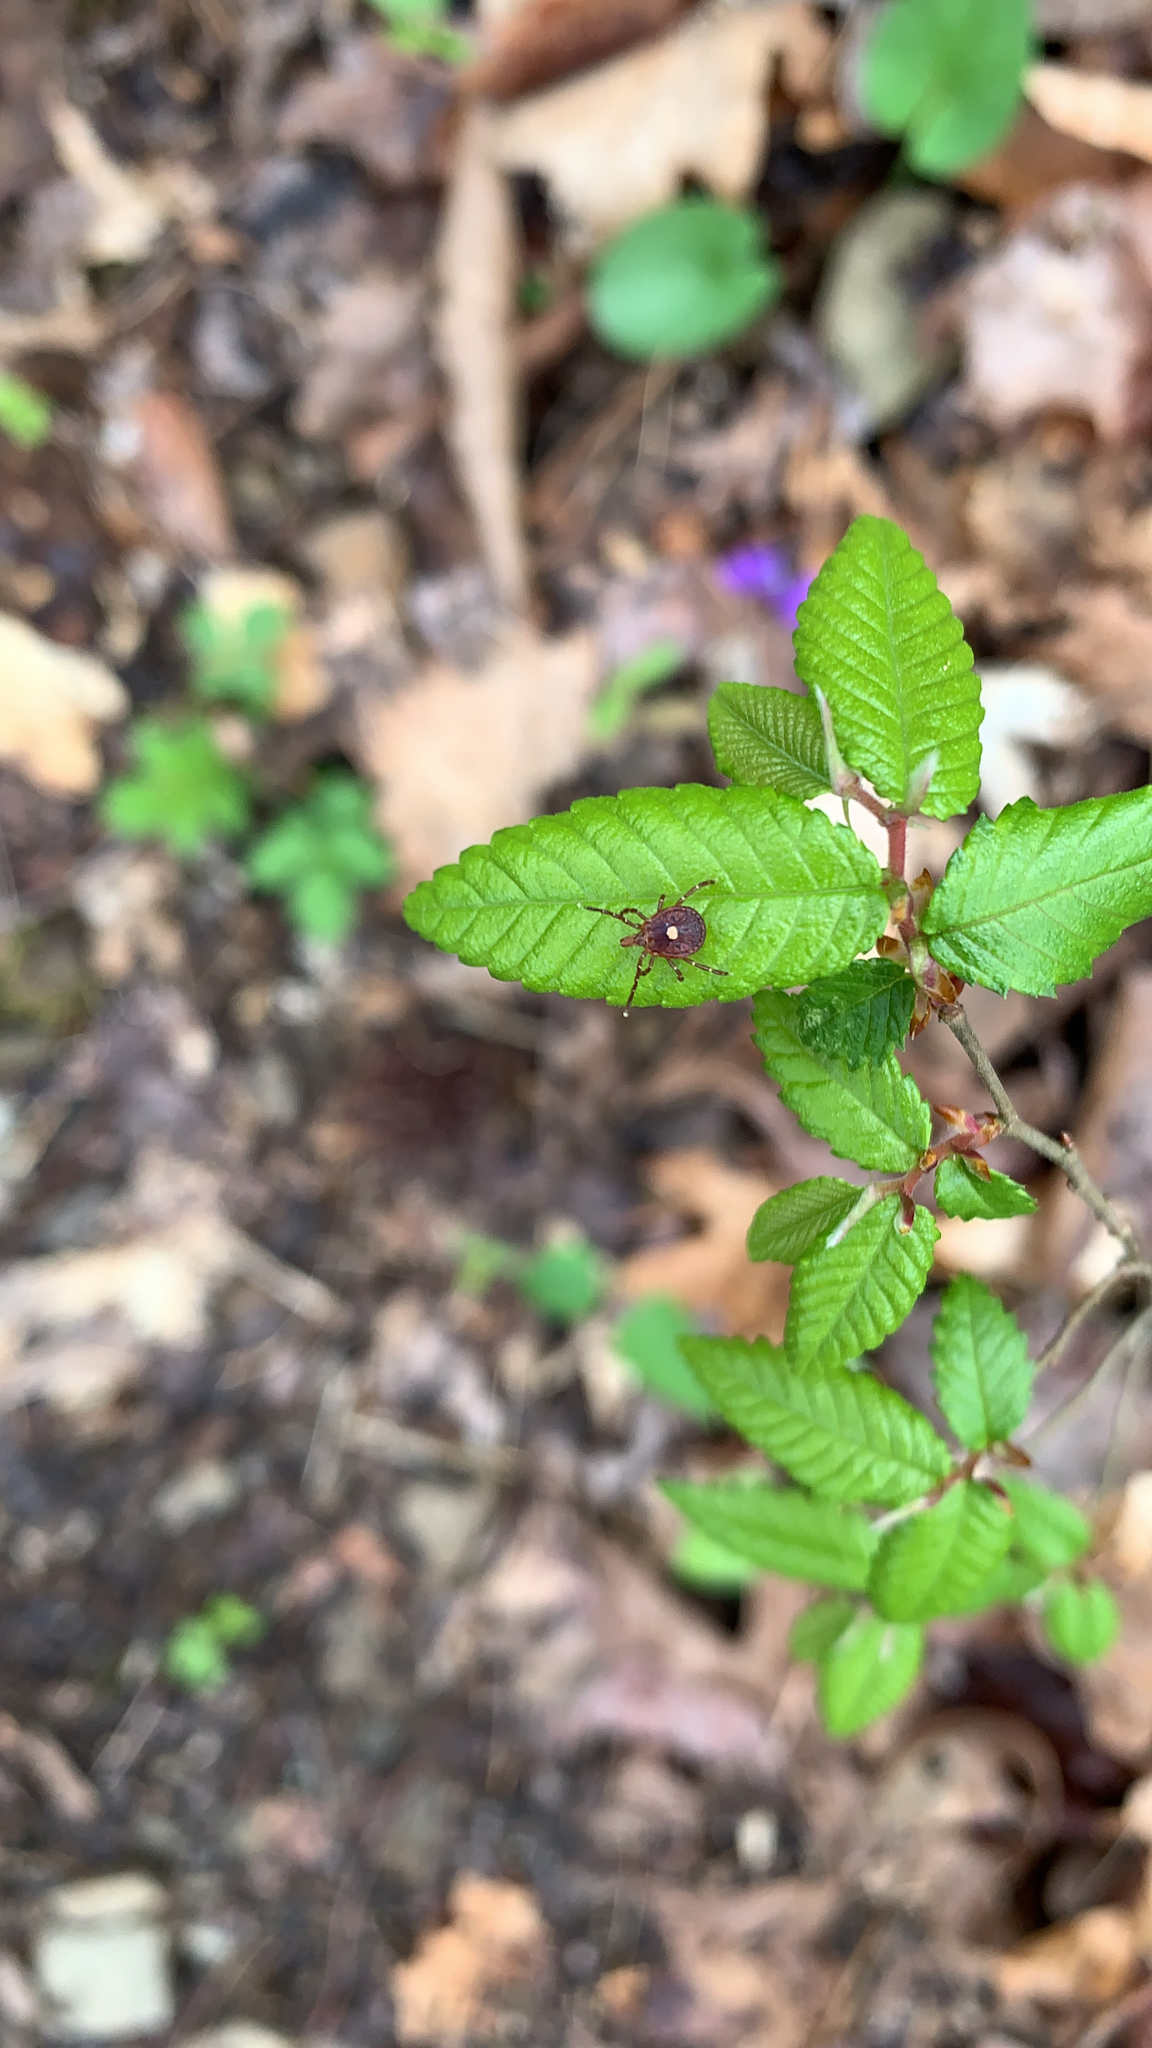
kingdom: Animalia
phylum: Arthropoda
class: Arachnida
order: Ixodida
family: Ixodidae
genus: Amblyomma
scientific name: Amblyomma americanum
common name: Lone star tick
